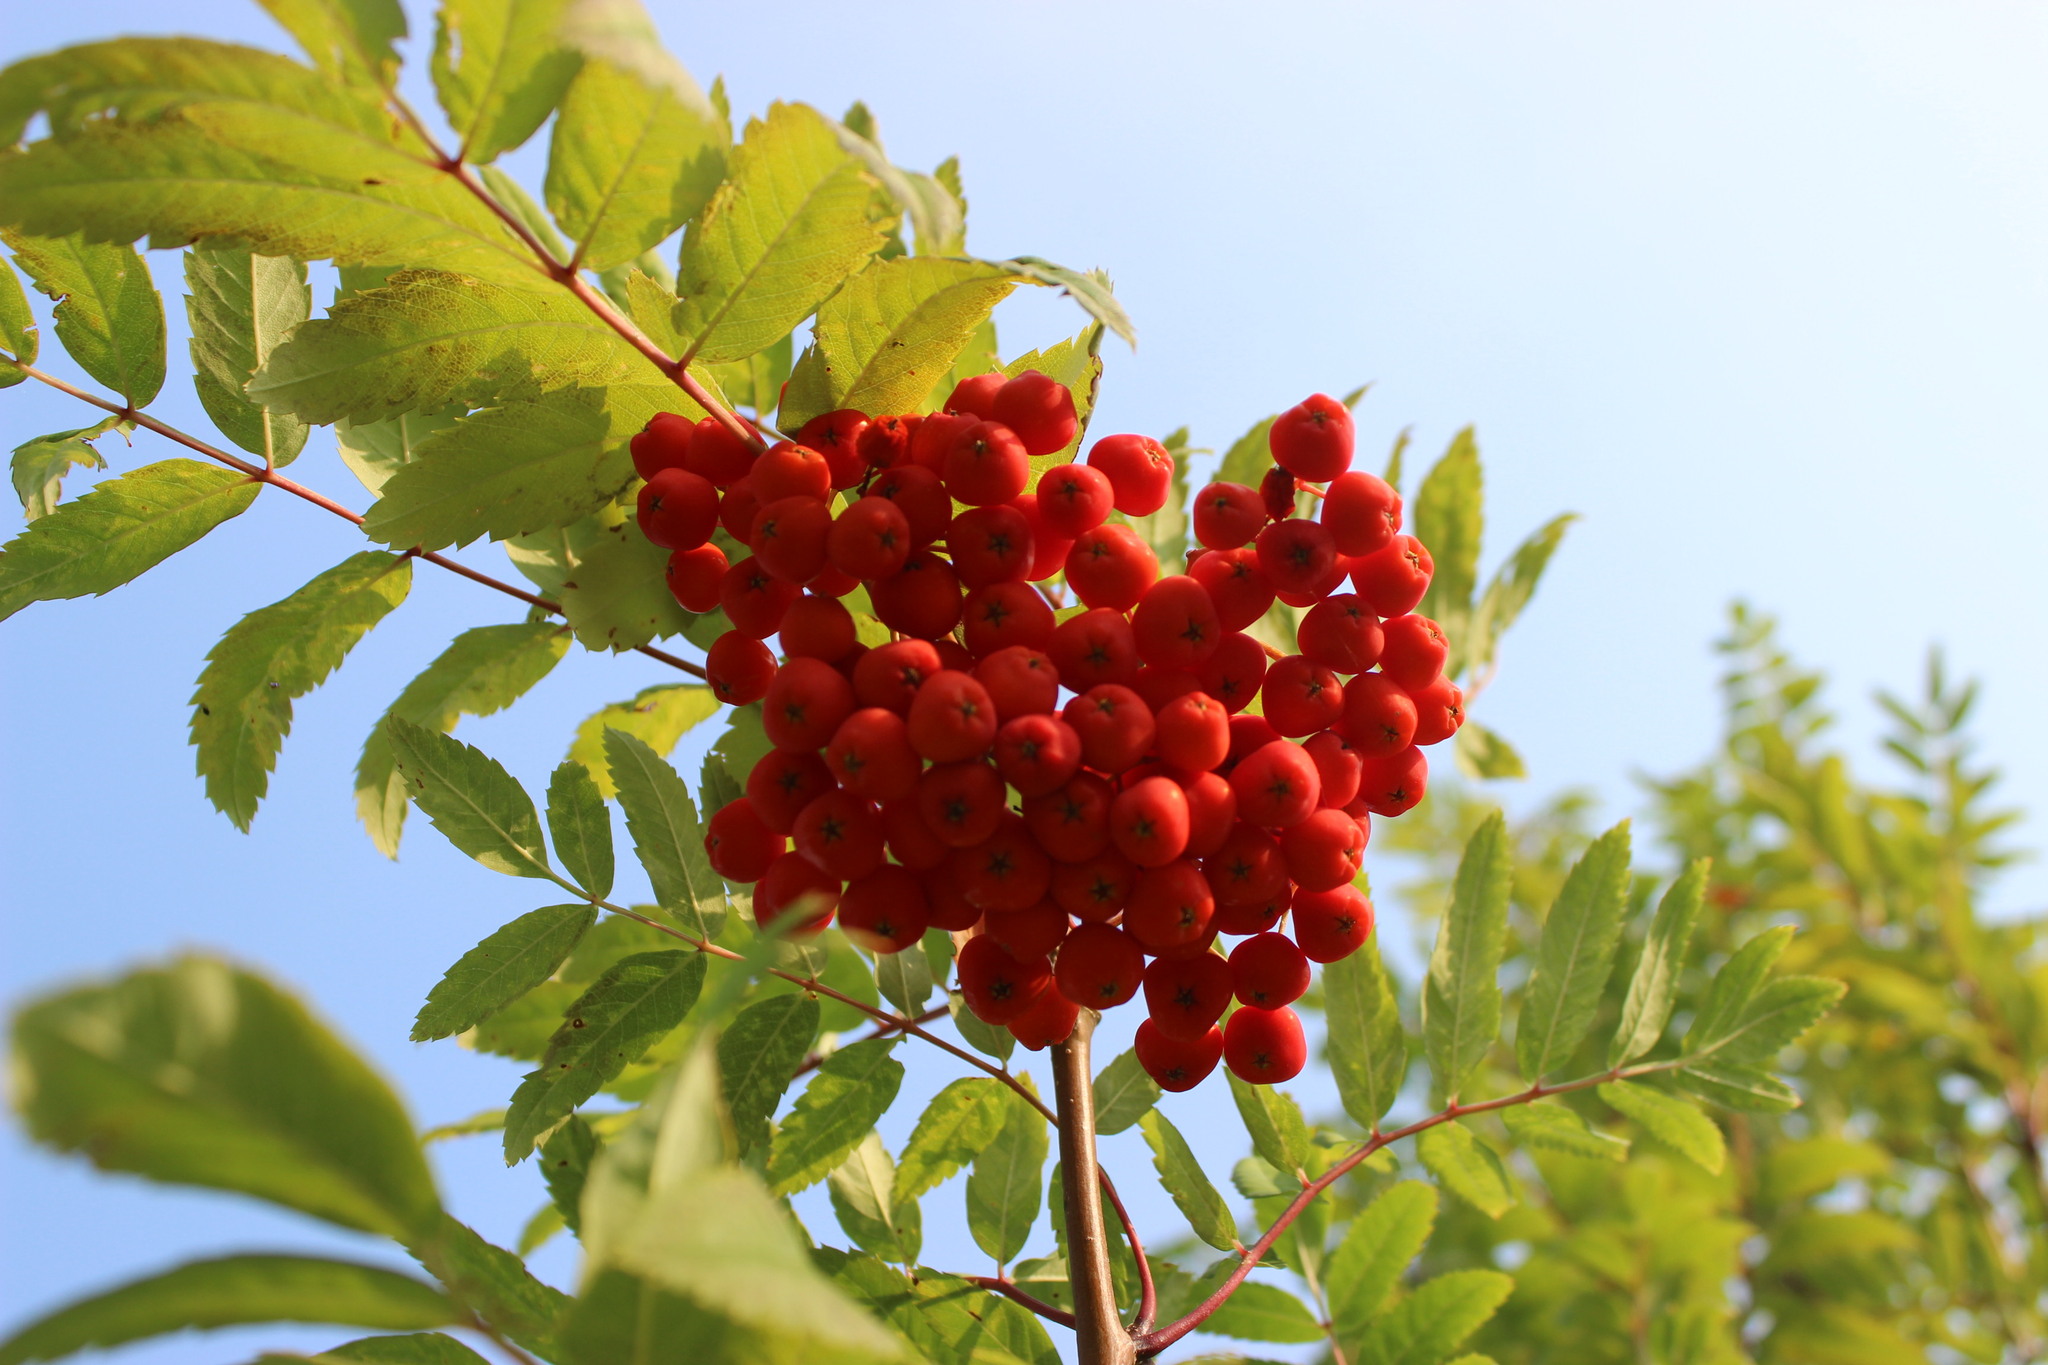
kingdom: Plantae
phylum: Tracheophyta
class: Magnoliopsida
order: Rosales
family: Rosaceae
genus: Sorbus
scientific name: Sorbus aucuparia
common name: Rowan
